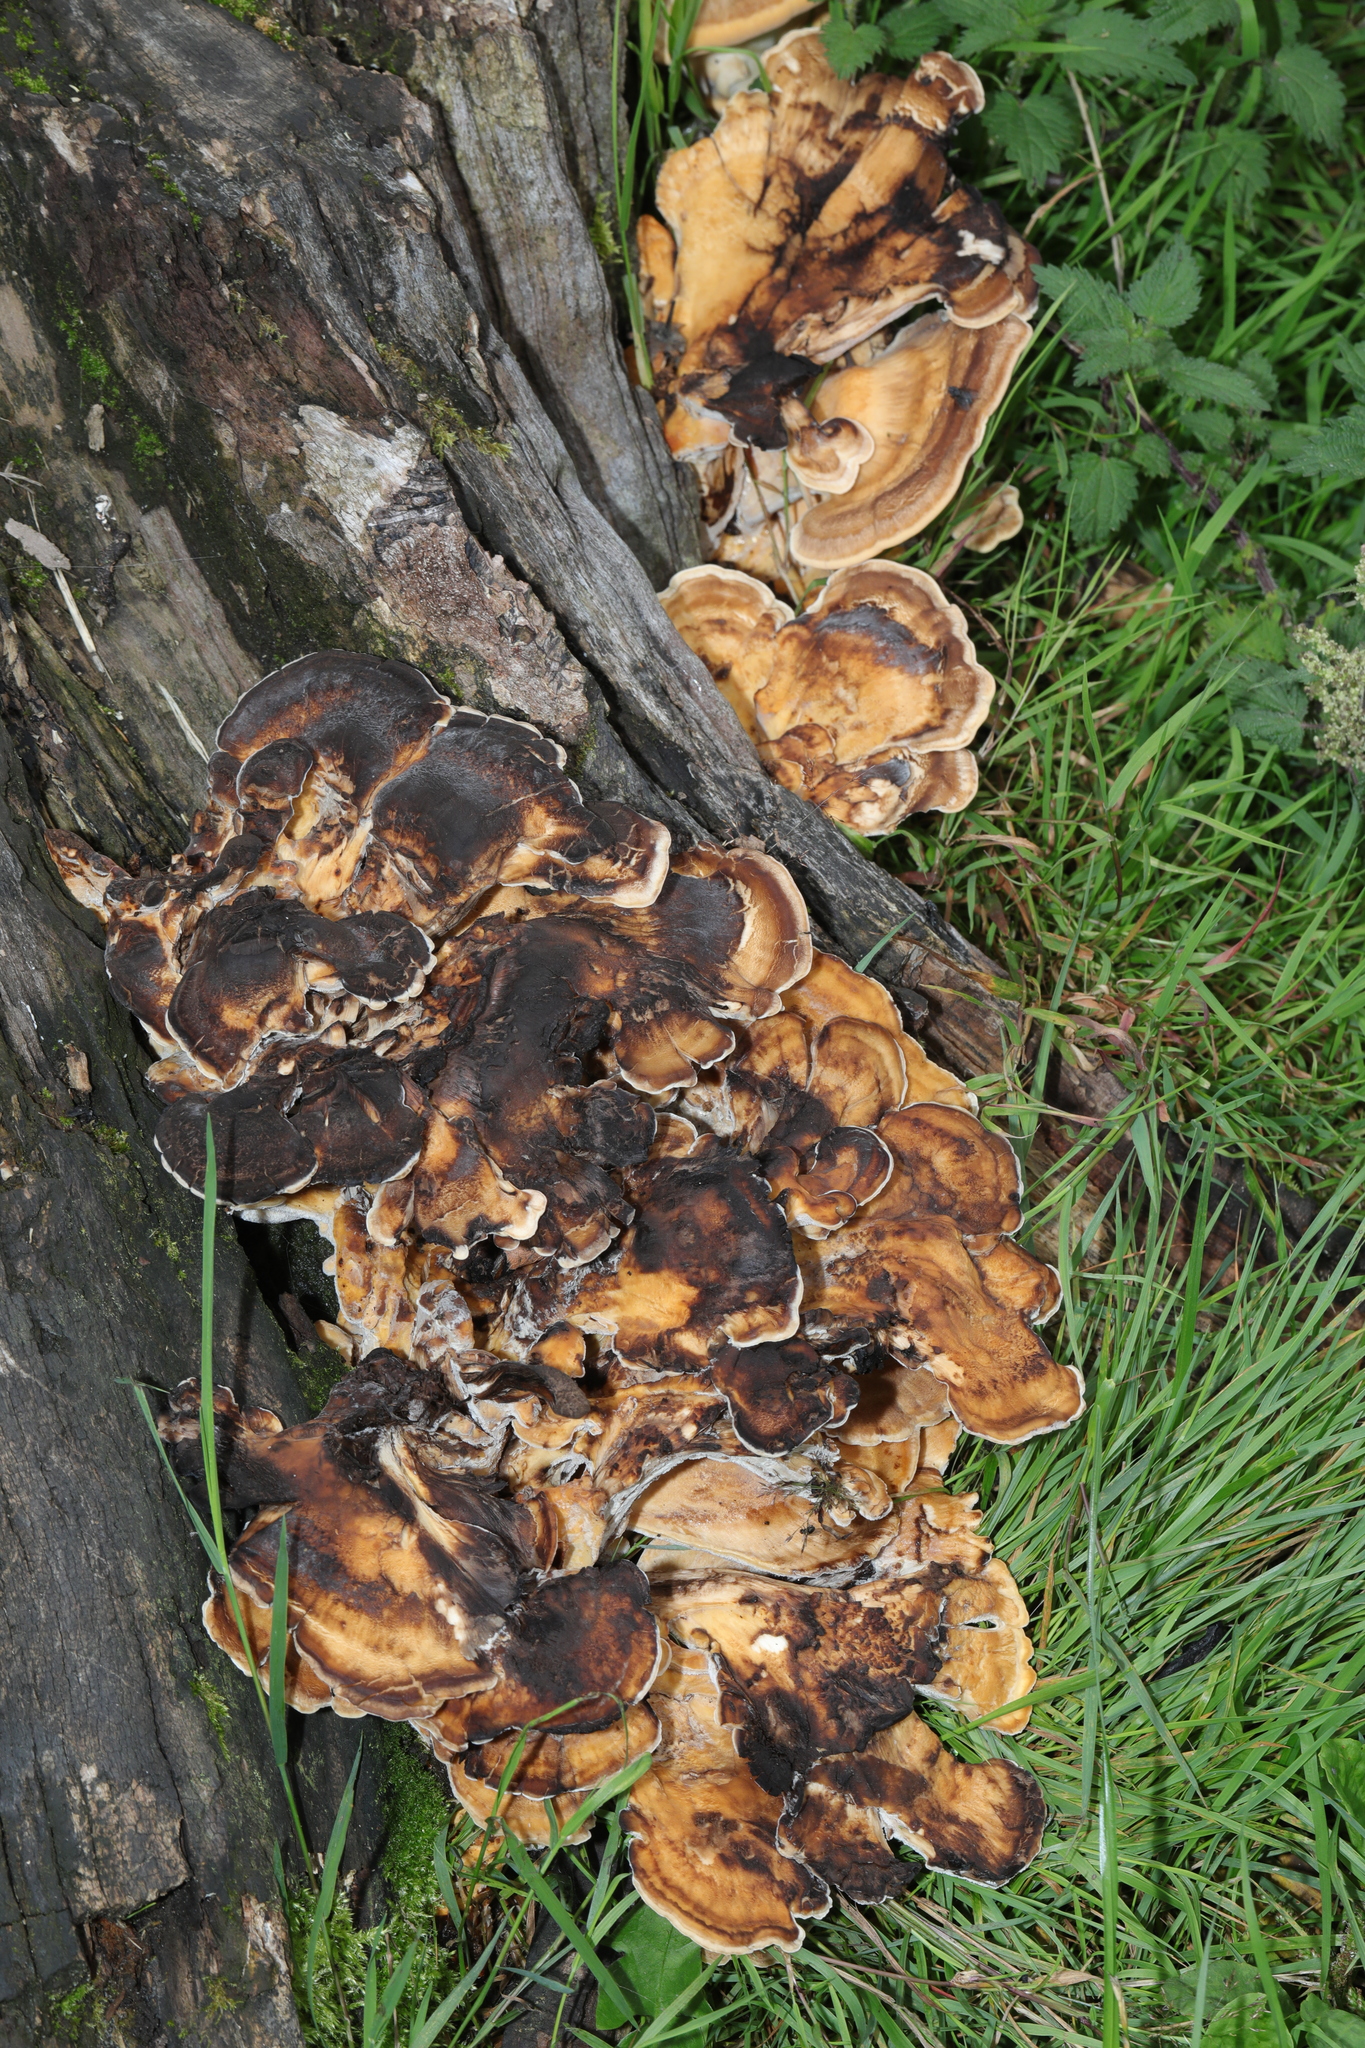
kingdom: Fungi
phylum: Basidiomycota
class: Agaricomycetes
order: Polyporales
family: Meripilaceae
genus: Meripilus
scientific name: Meripilus giganteus
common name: Giant polypore
